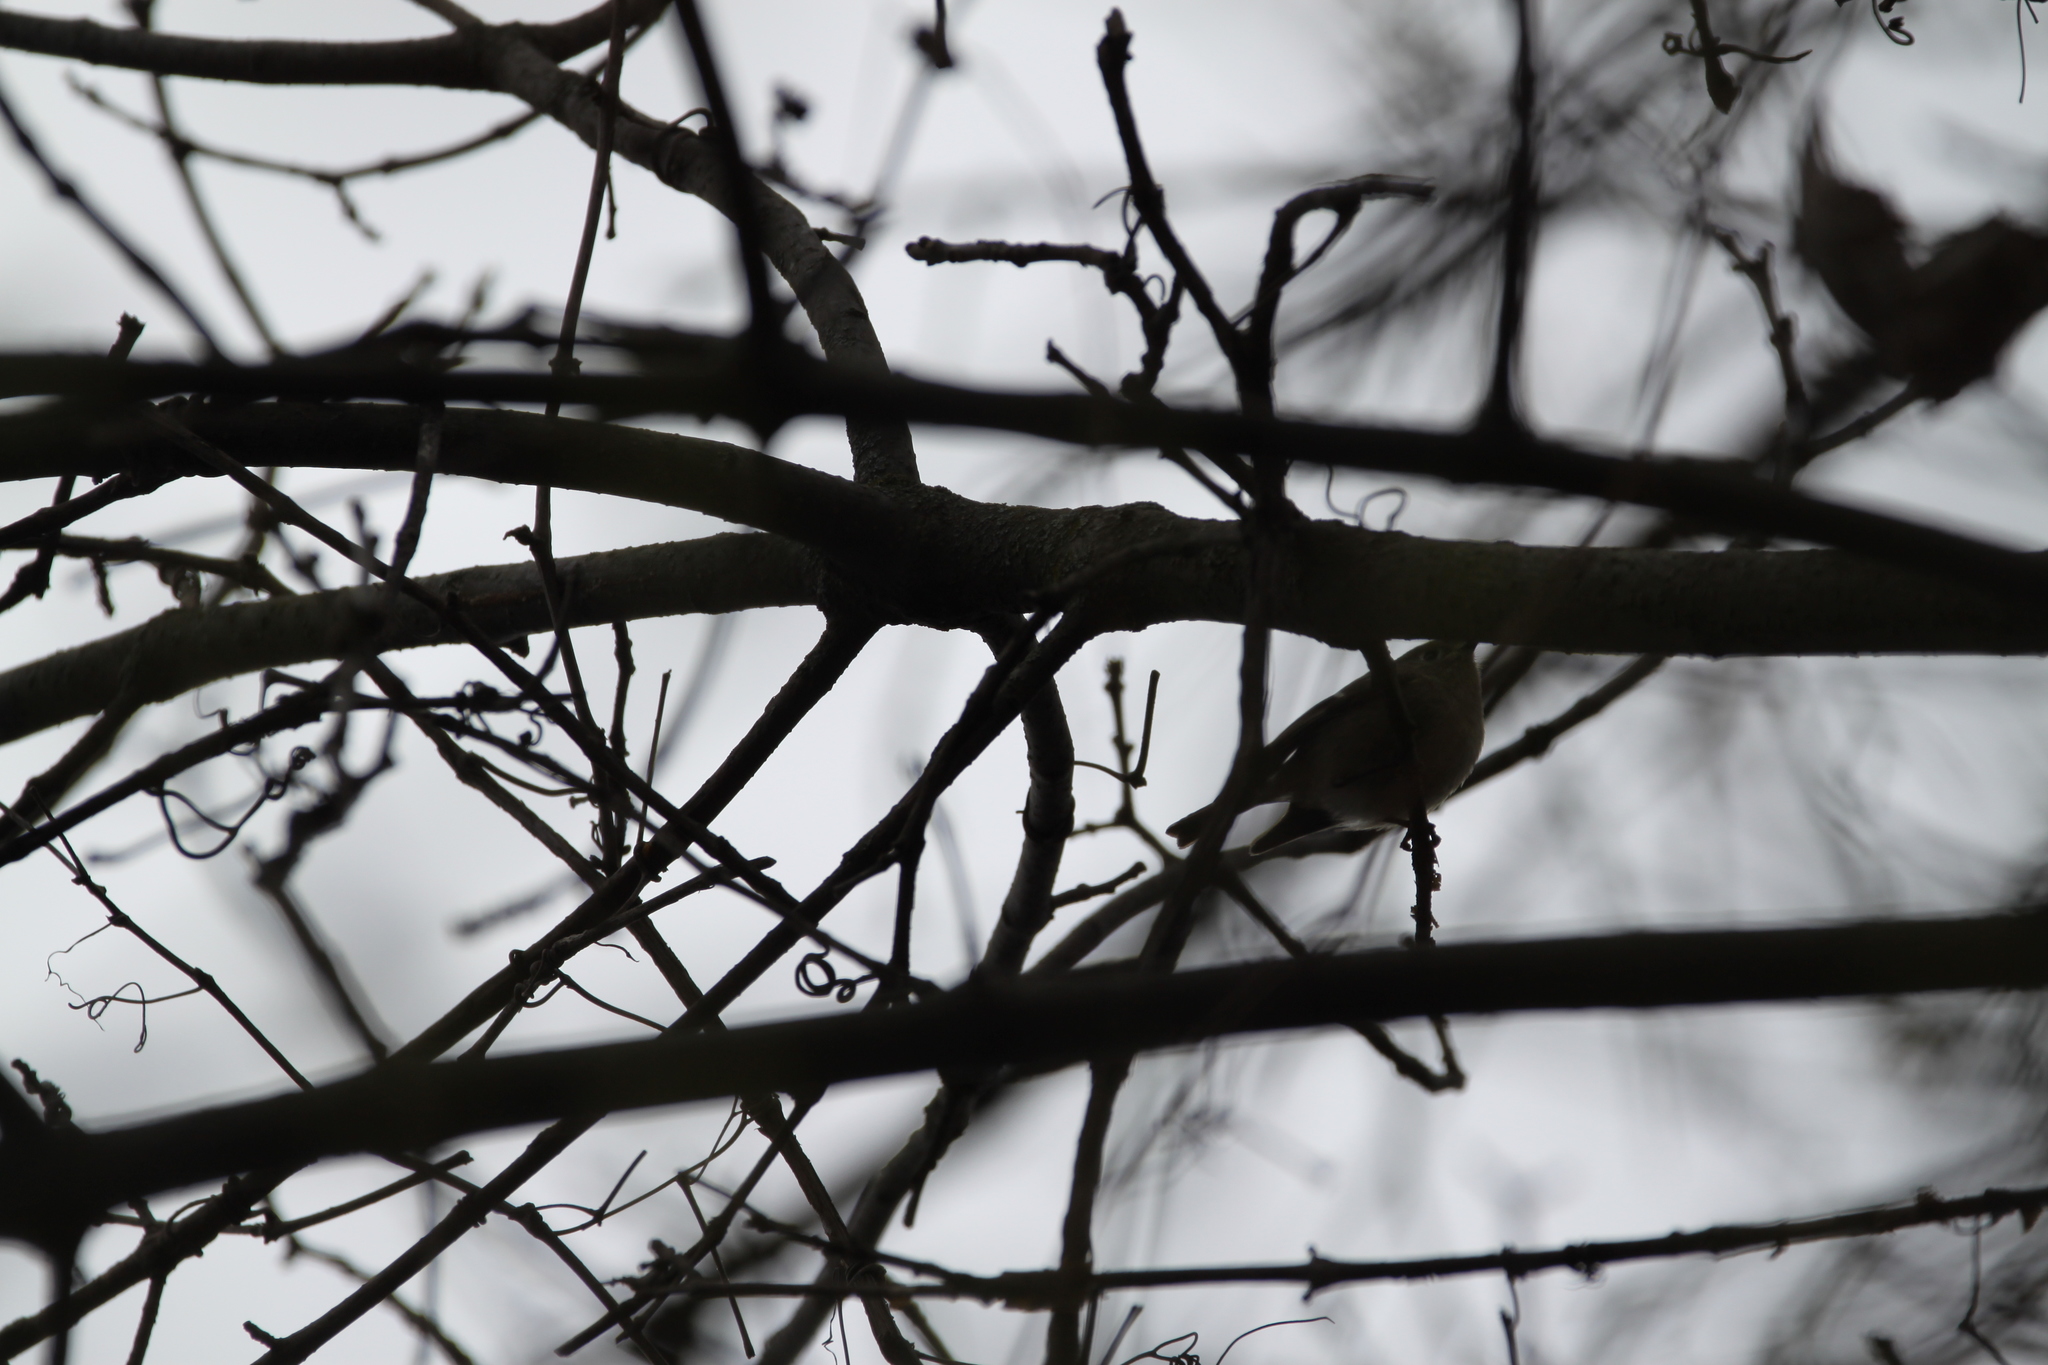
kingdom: Animalia
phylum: Chordata
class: Aves
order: Passeriformes
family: Regulidae
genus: Regulus
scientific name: Regulus calendula
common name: Ruby-crowned kinglet
